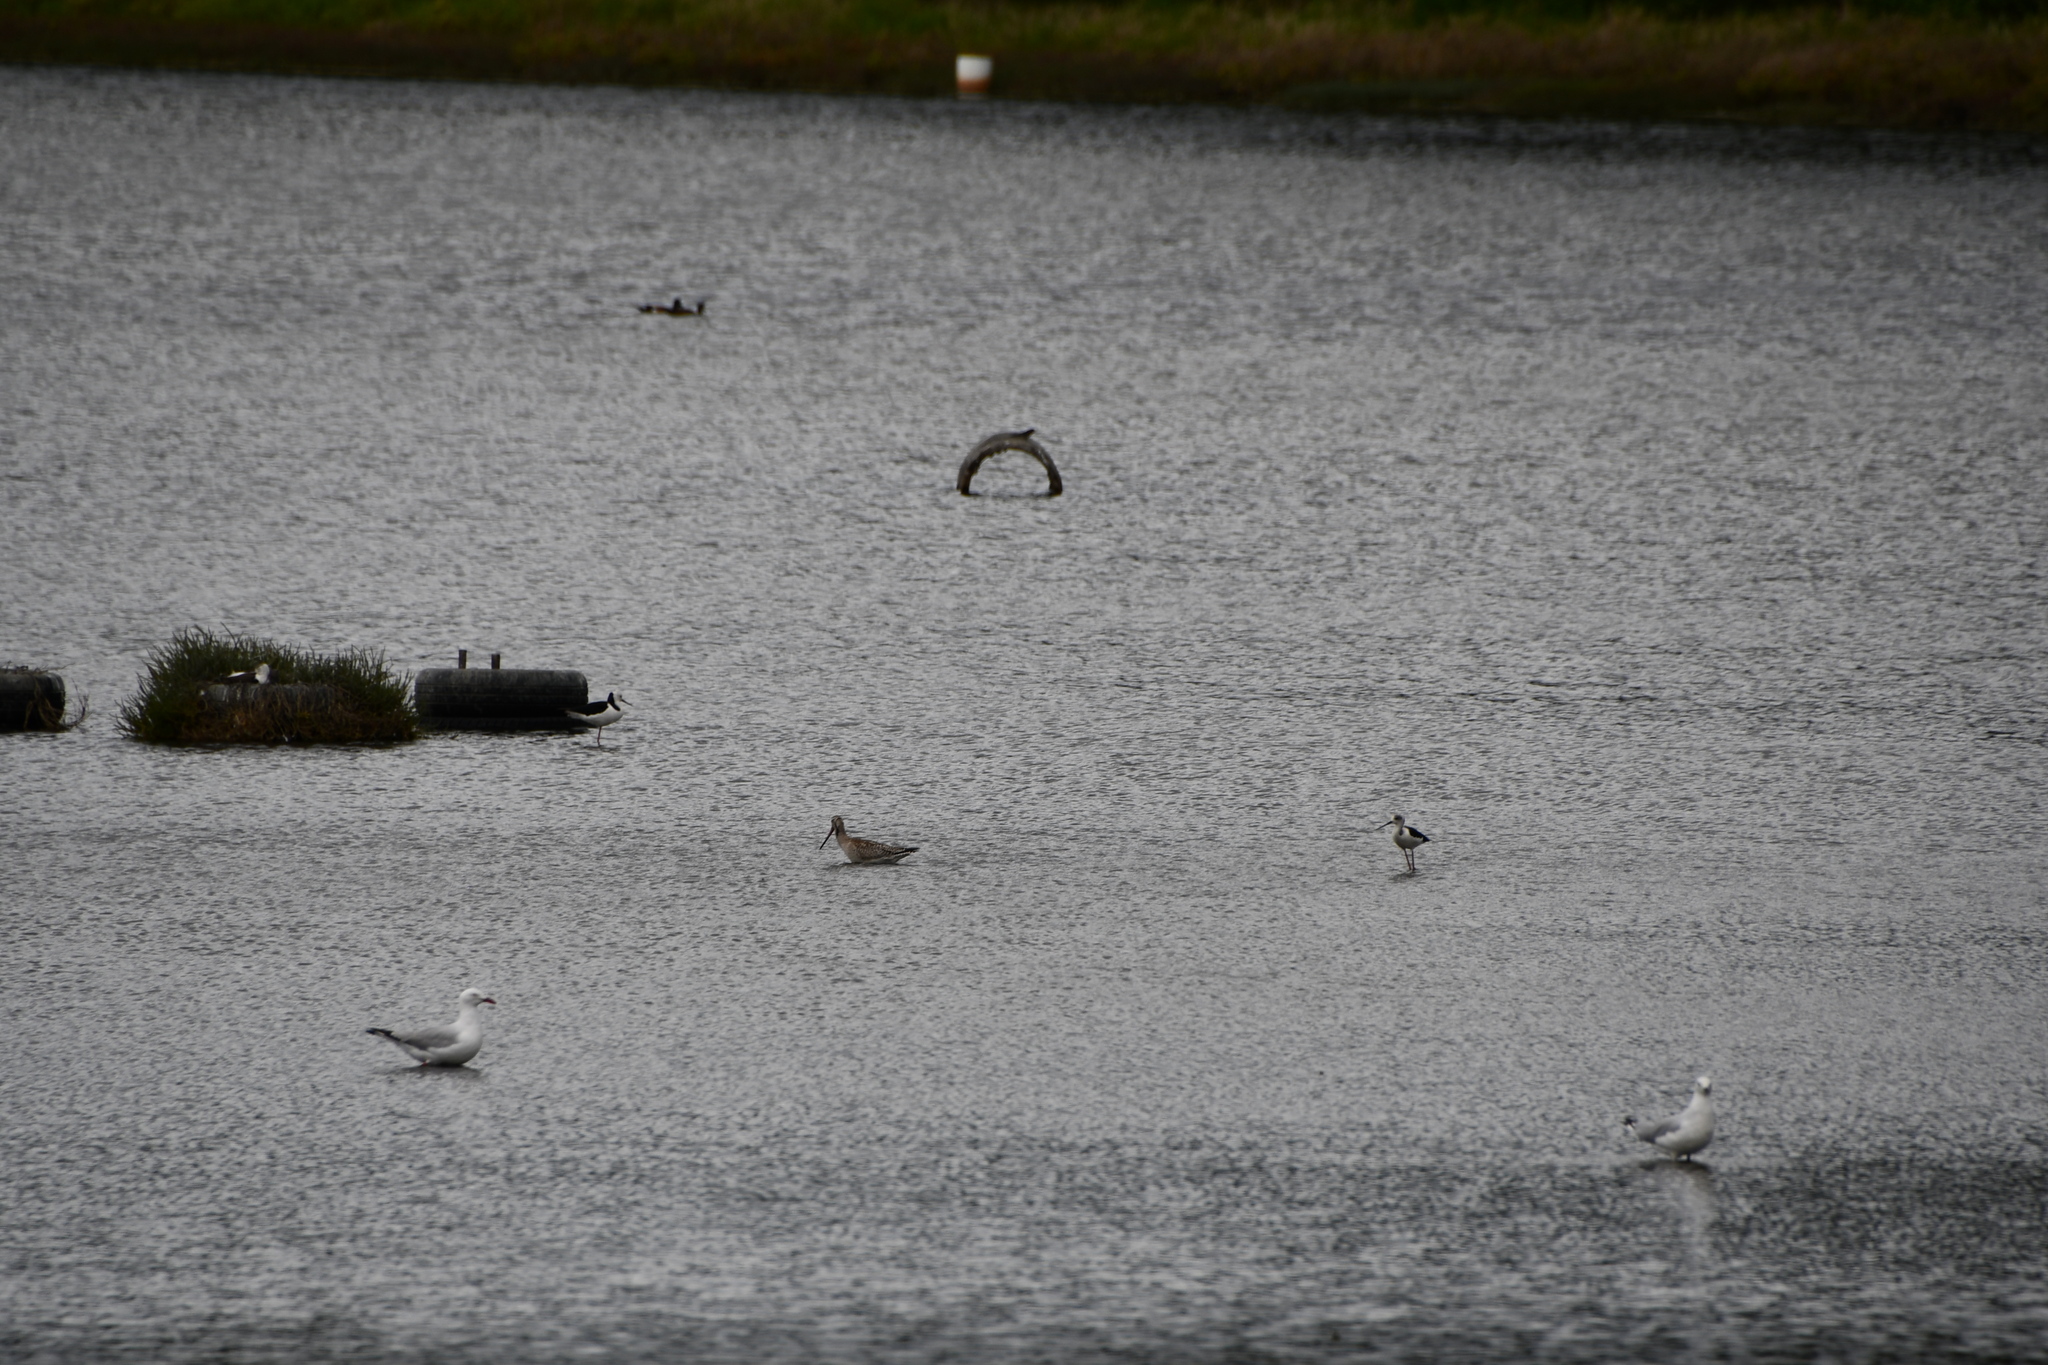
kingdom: Animalia
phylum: Chordata
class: Aves
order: Charadriiformes
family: Scolopacidae
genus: Limosa
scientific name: Limosa lapponica
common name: Bar-tailed godwit
